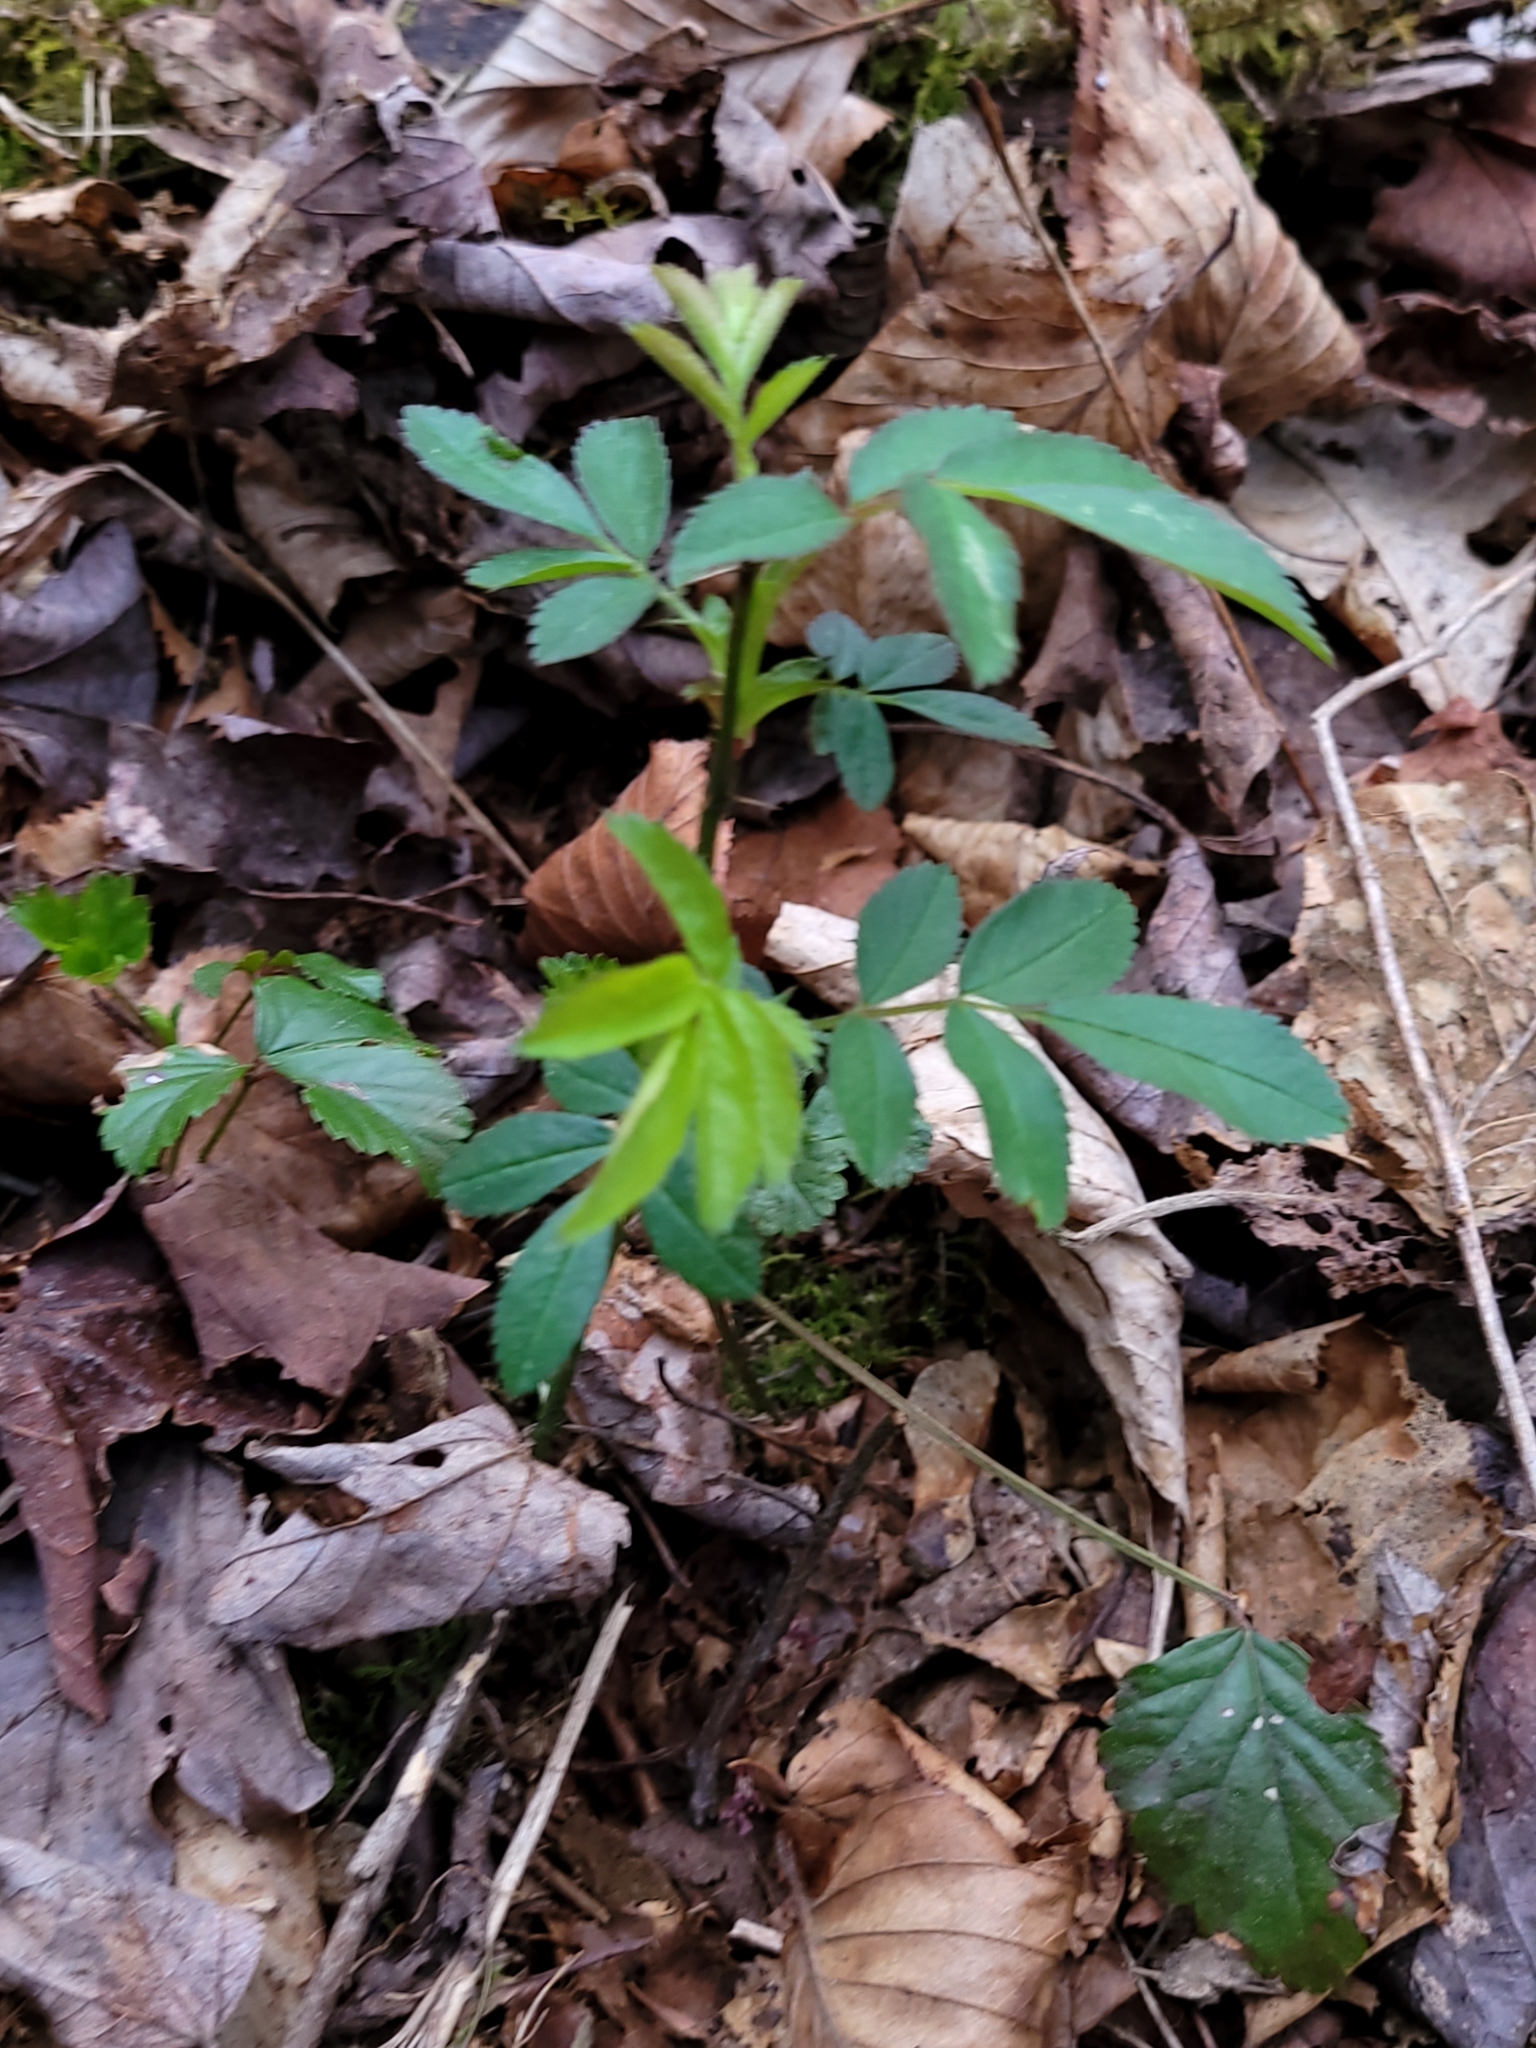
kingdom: Plantae
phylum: Tracheophyta
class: Magnoliopsida
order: Rosales
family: Rosaceae
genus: Rosa
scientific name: Rosa multiflora
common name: Multiflora rose
